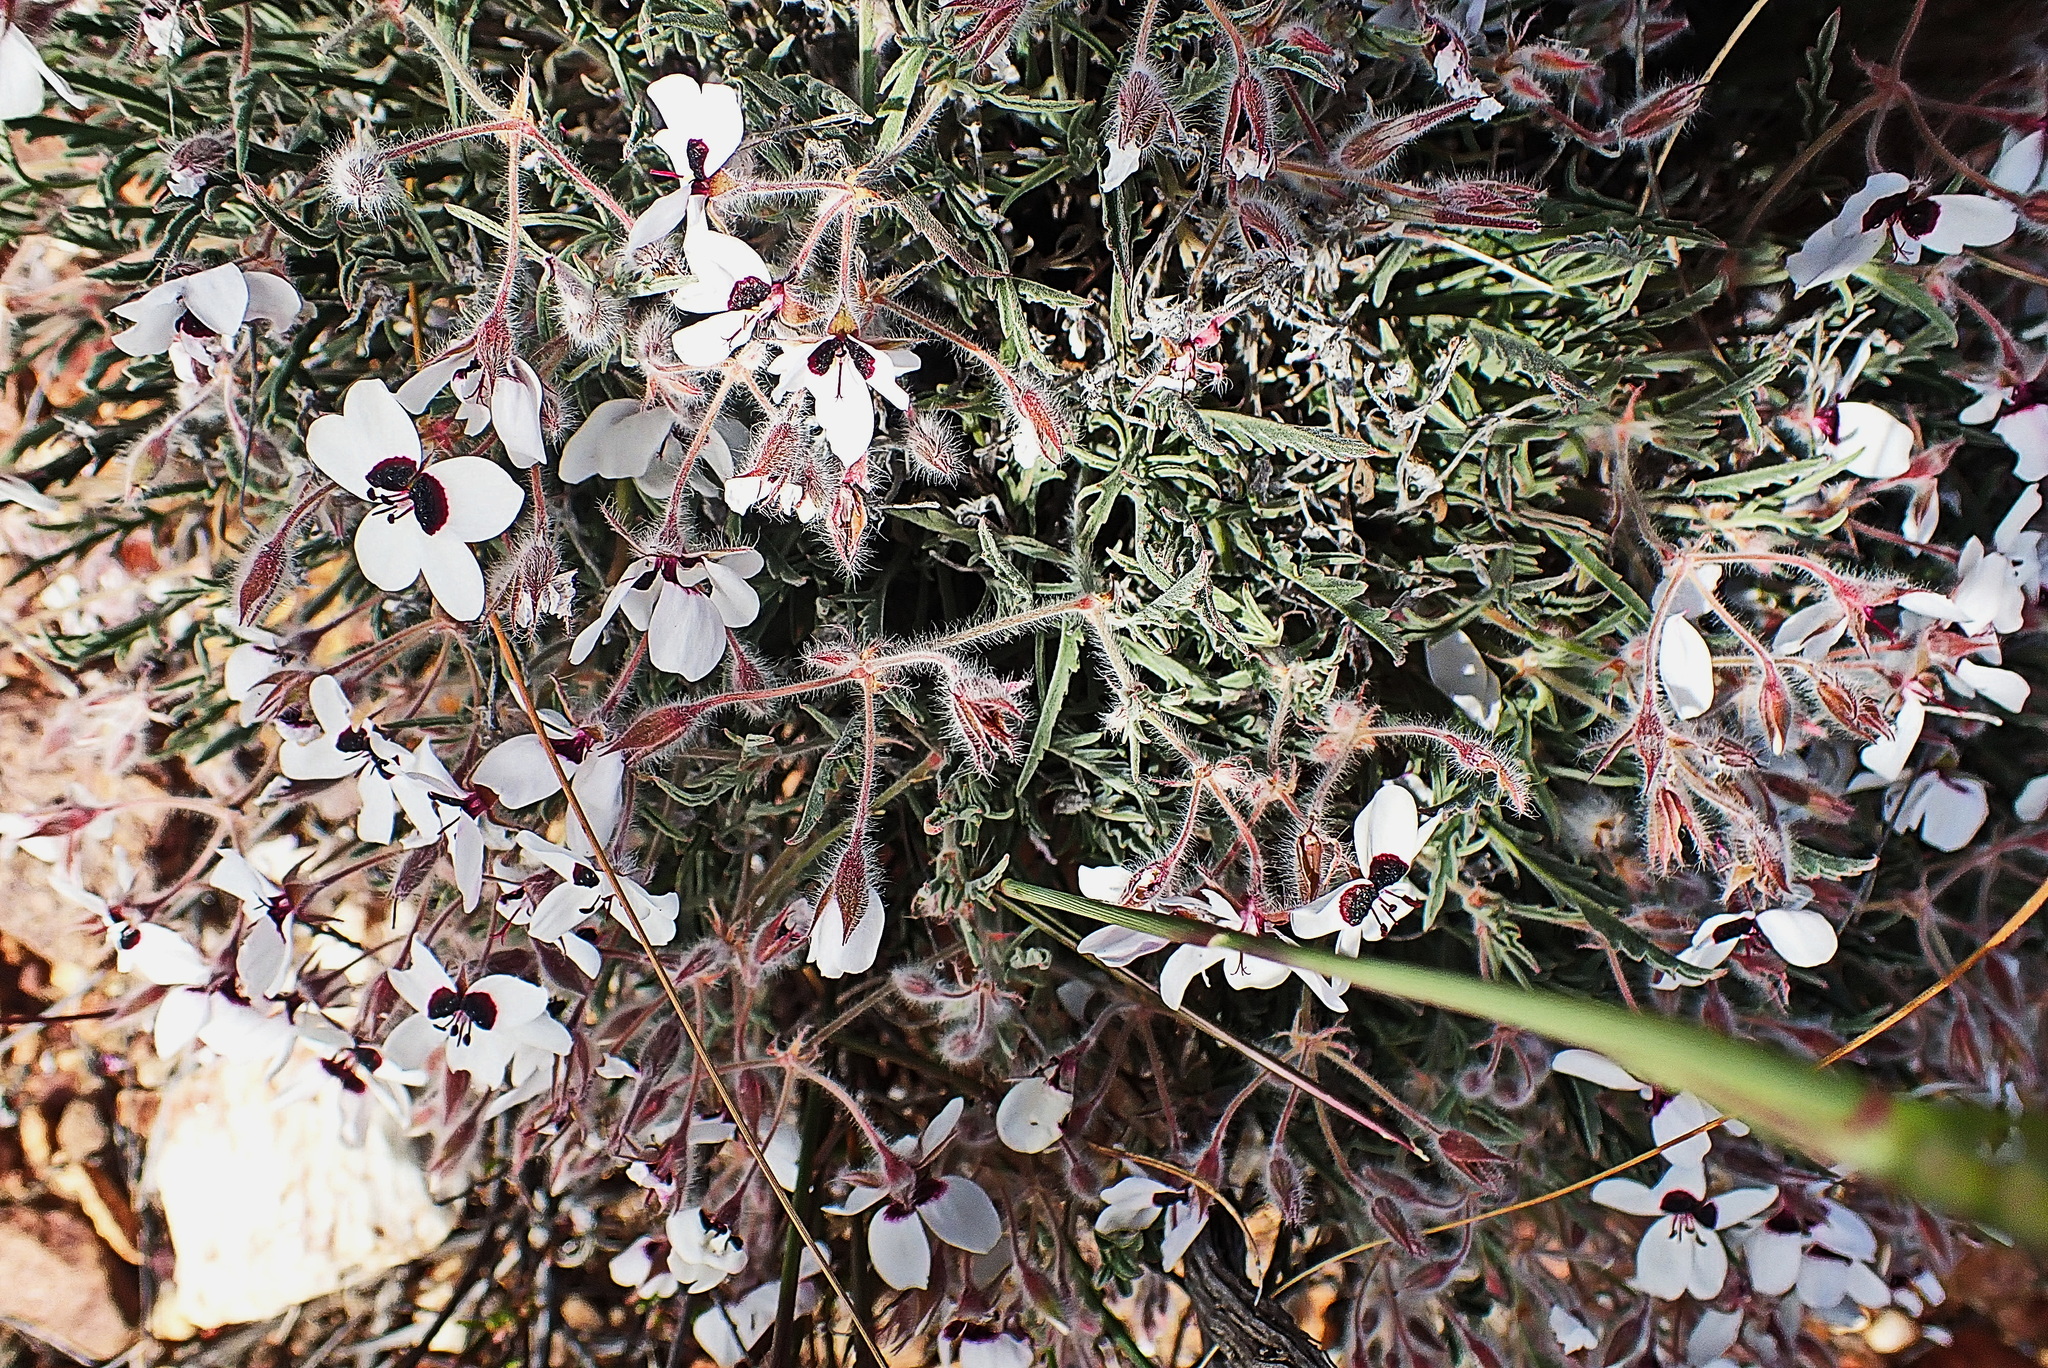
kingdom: Plantae
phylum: Tracheophyta
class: Magnoliopsida
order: Geraniales
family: Geraniaceae
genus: Pelargonium
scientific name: Pelargonium tricolor
